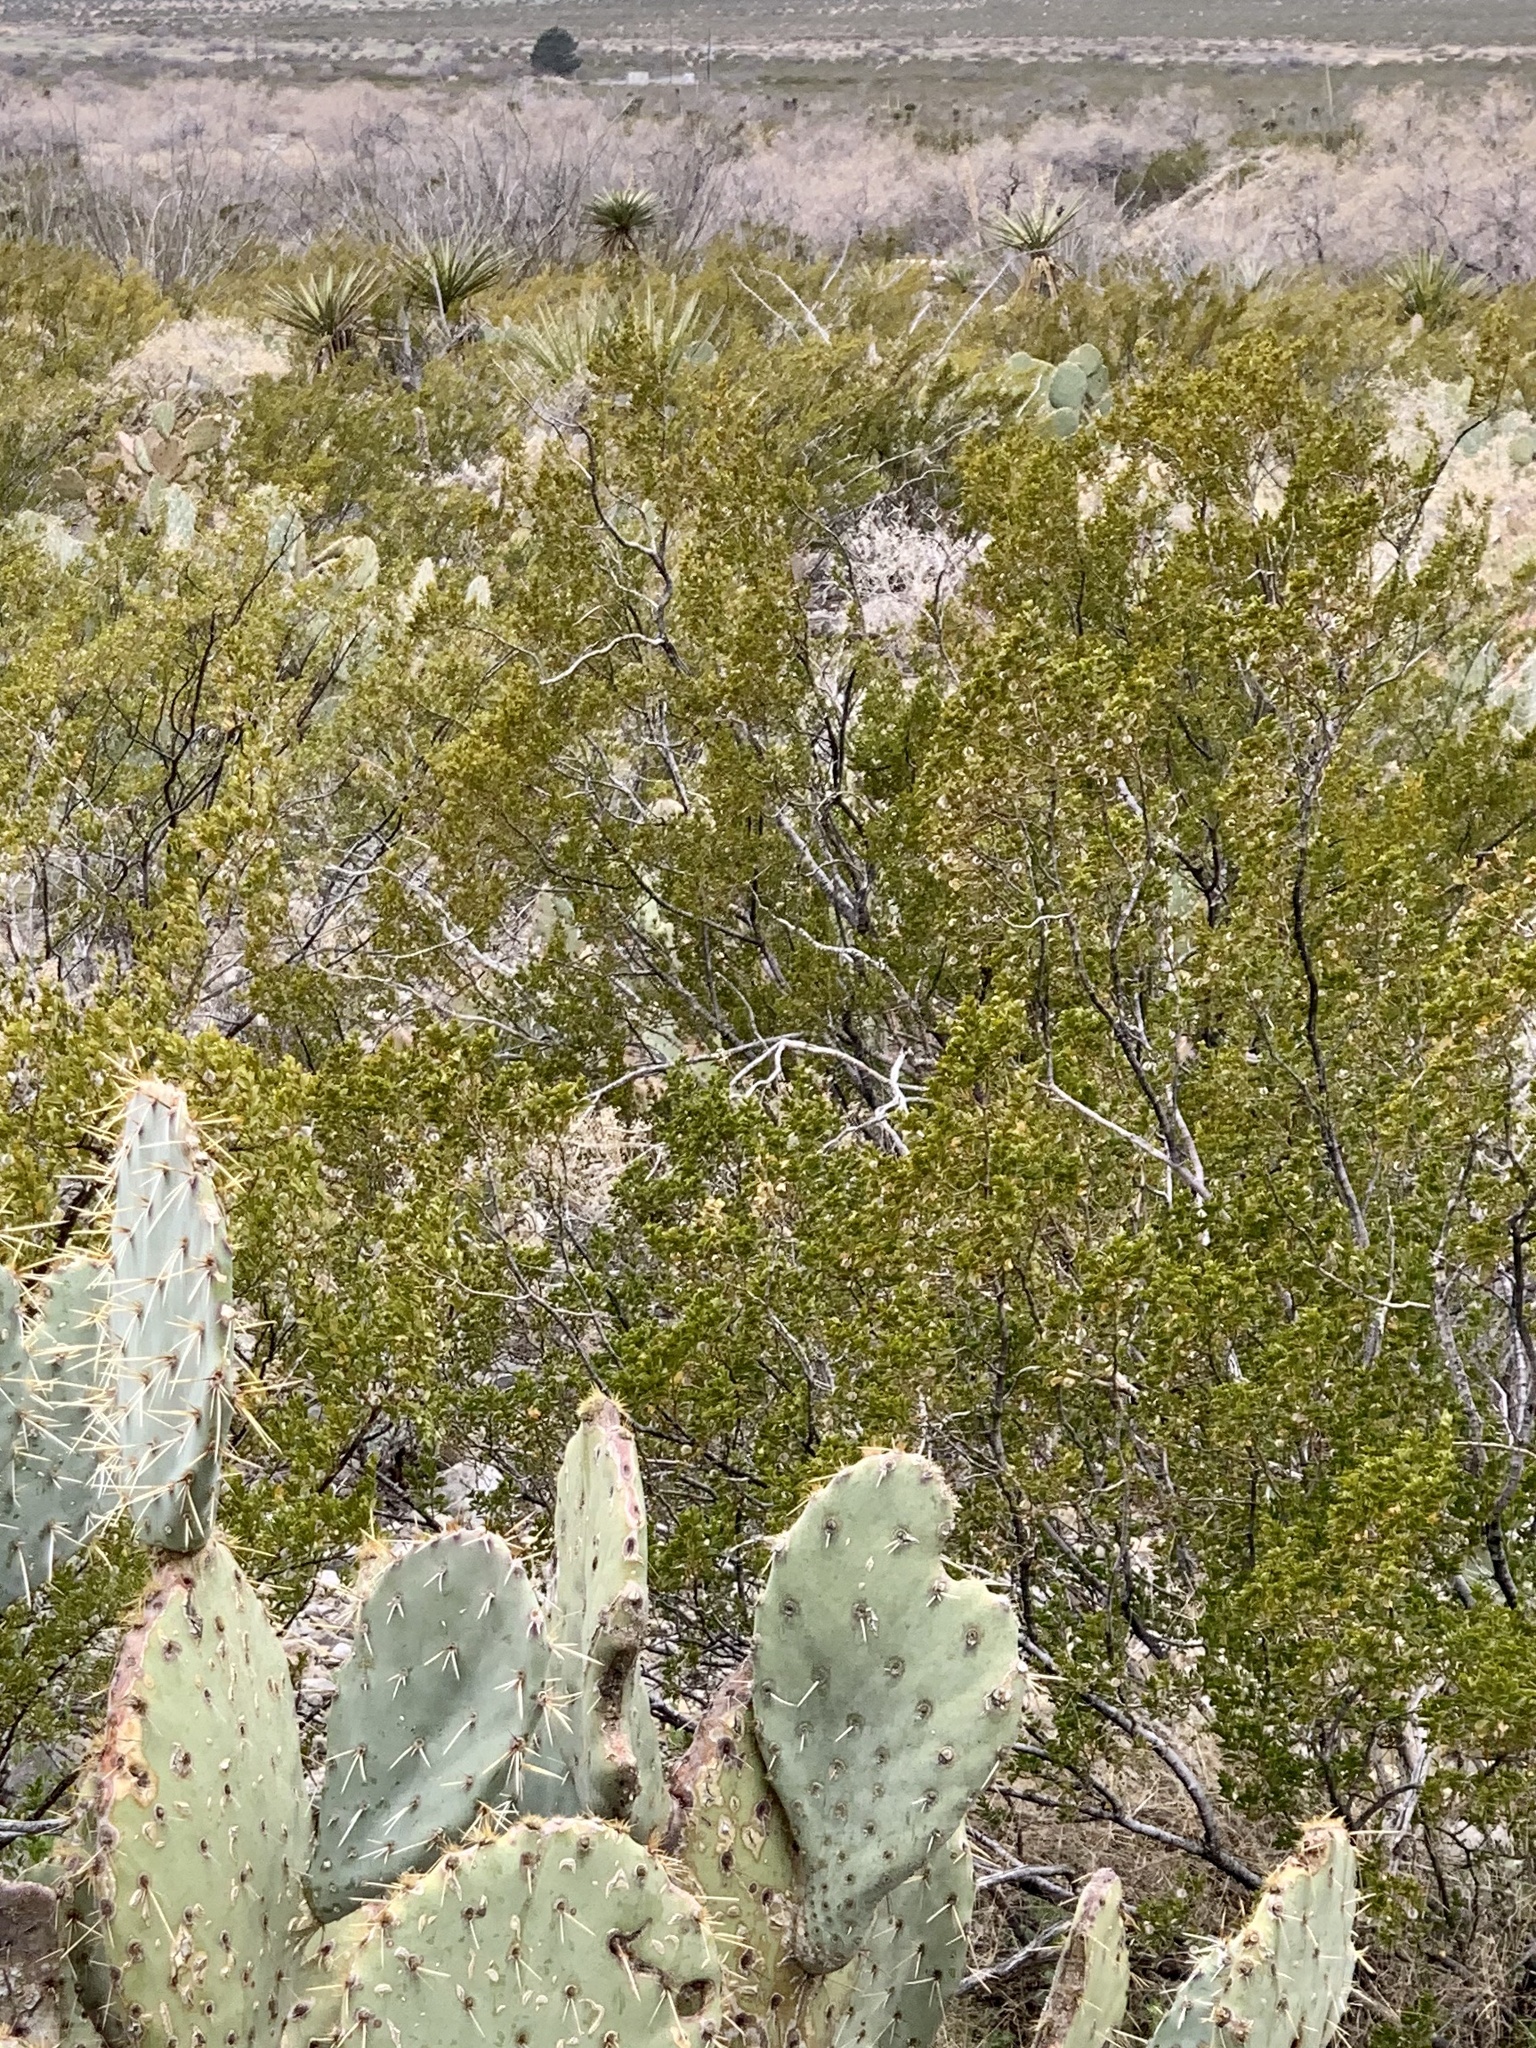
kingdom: Plantae
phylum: Tracheophyta
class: Magnoliopsida
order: Zygophyllales
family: Zygophyllaceae
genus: Larrea
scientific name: Larrea tridentata
